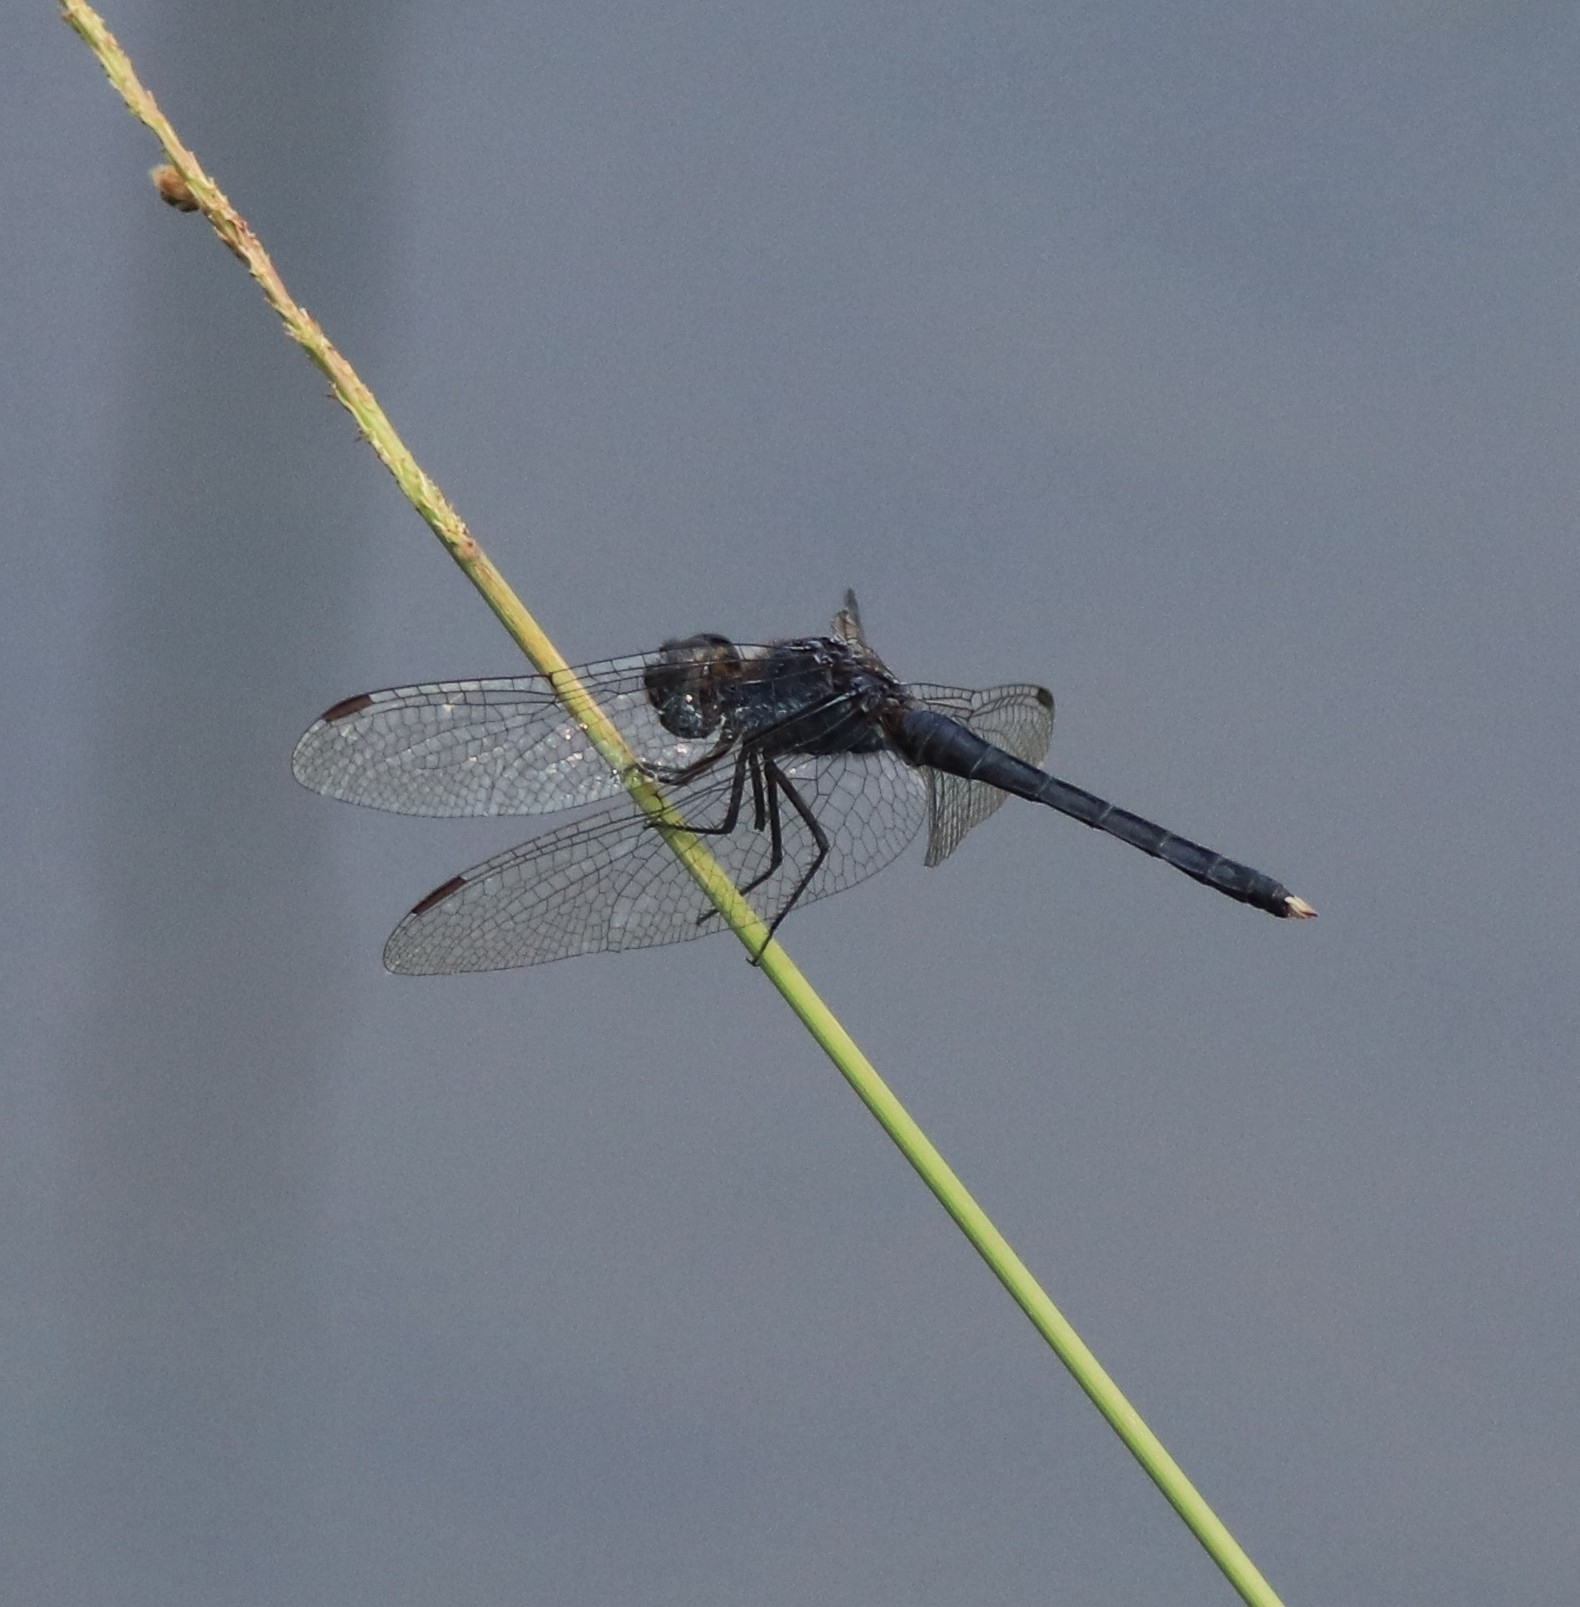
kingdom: Animalia
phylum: Arthropoda
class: Insecta
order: Odonata
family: Libellulidae
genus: Indothemis
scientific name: Indothemis carnatica
